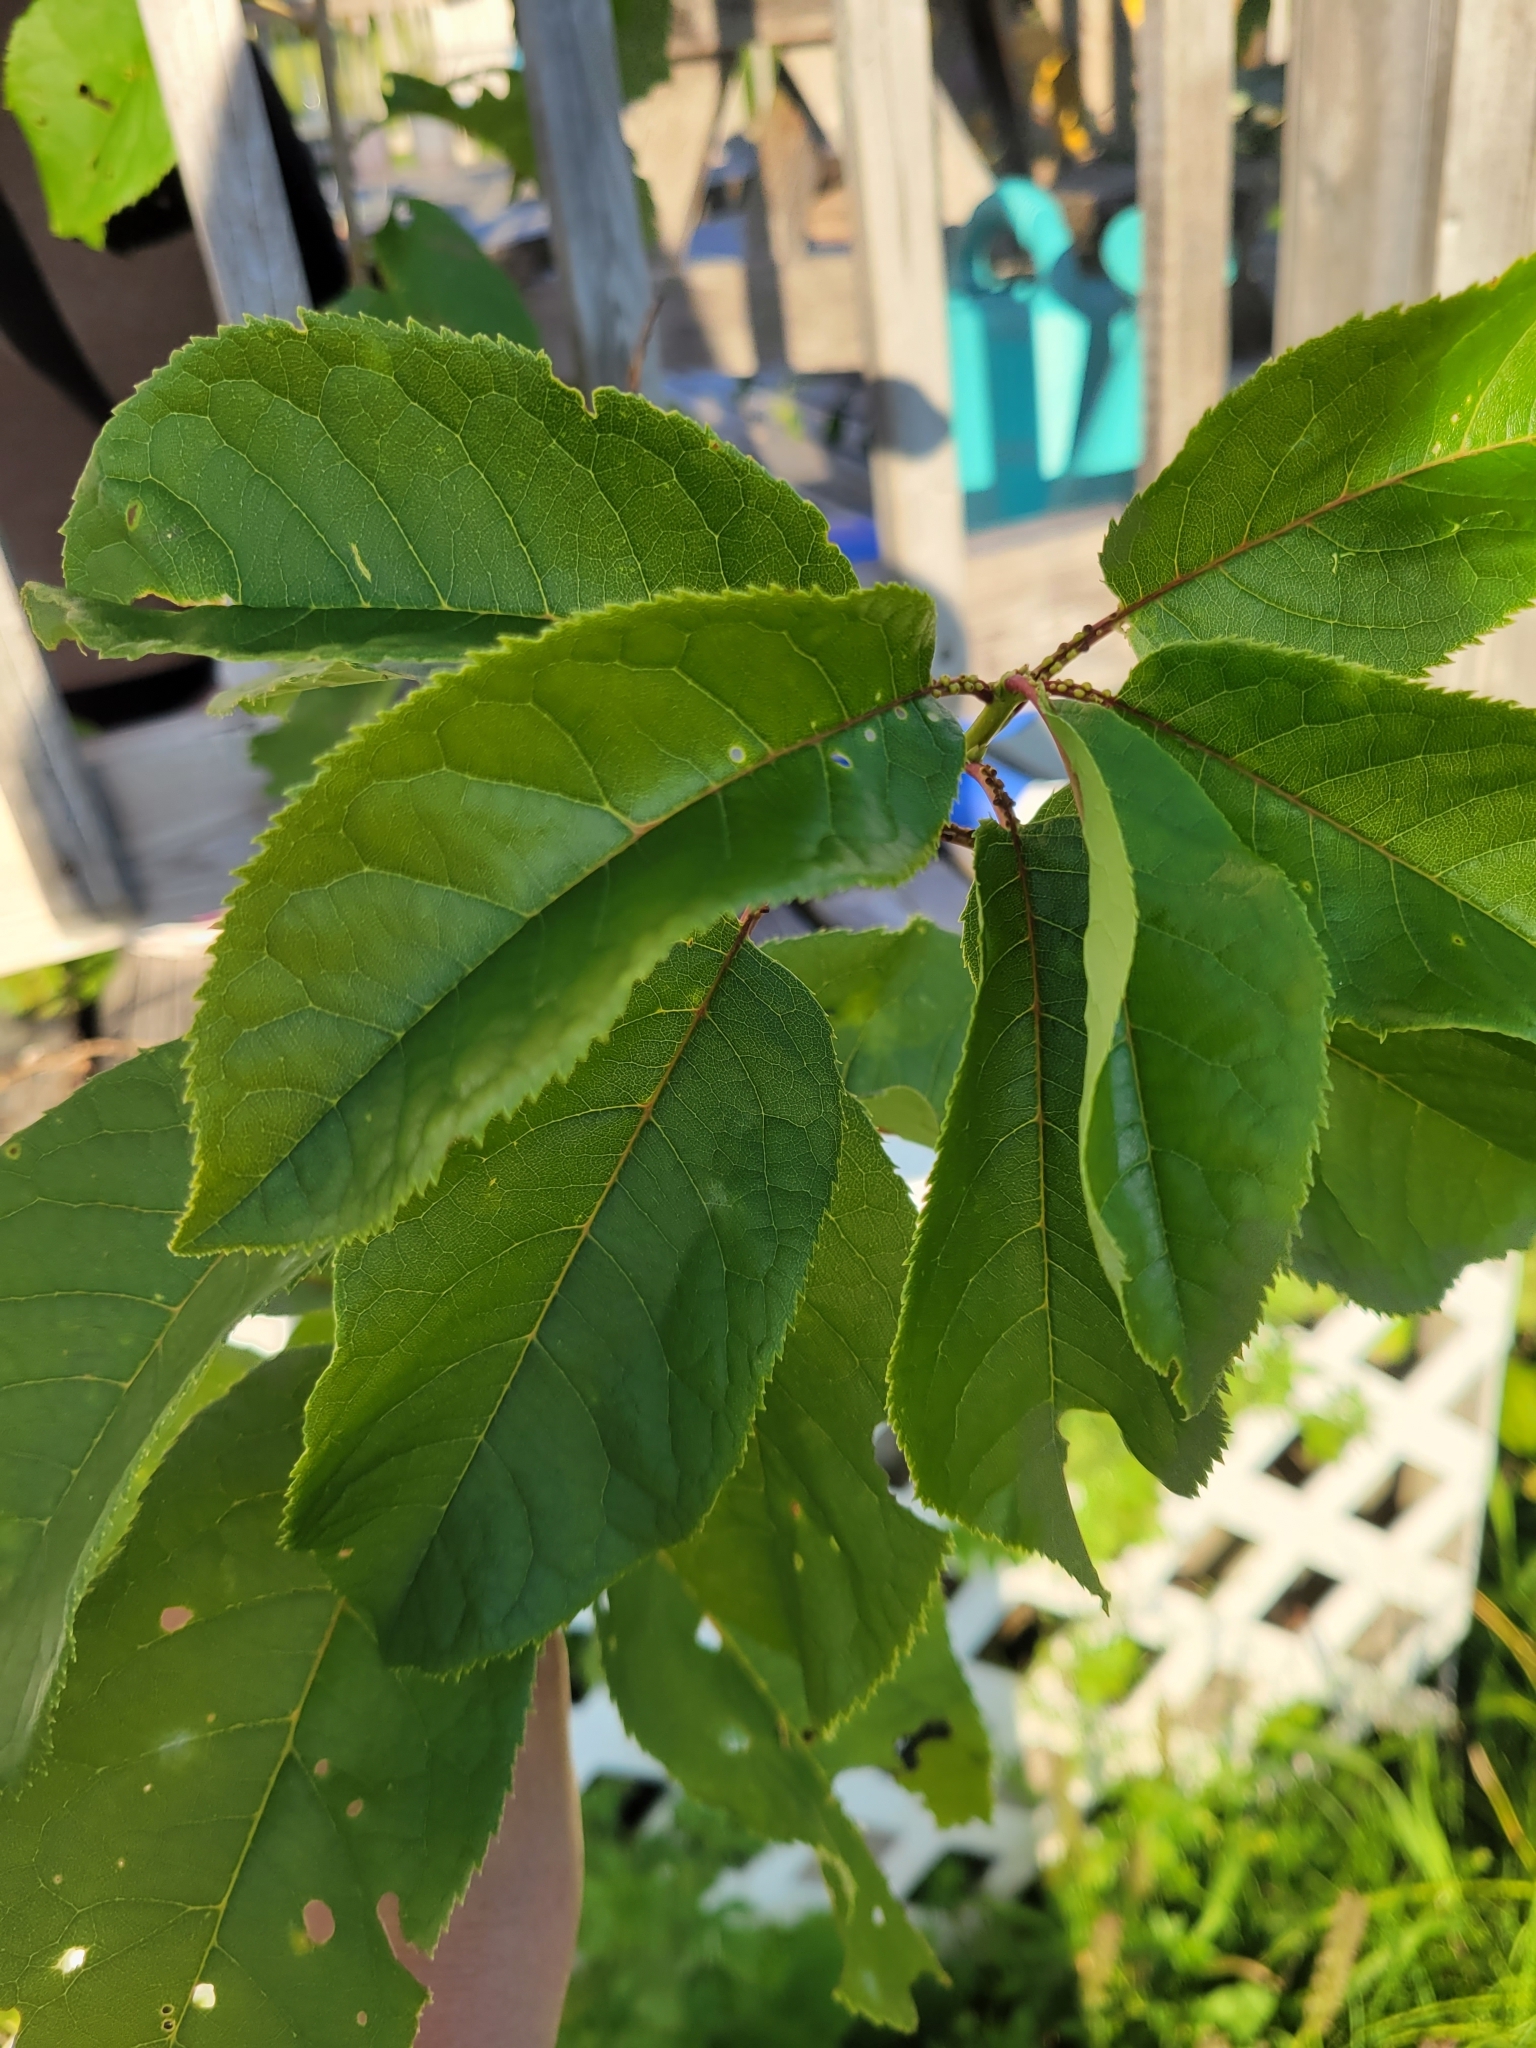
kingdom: Plantae
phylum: Tracheophyta
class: Magnoliopsida
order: Rosales
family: Rosaceae
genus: Prunus
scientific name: Prunus virginiana
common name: Chokecherry
